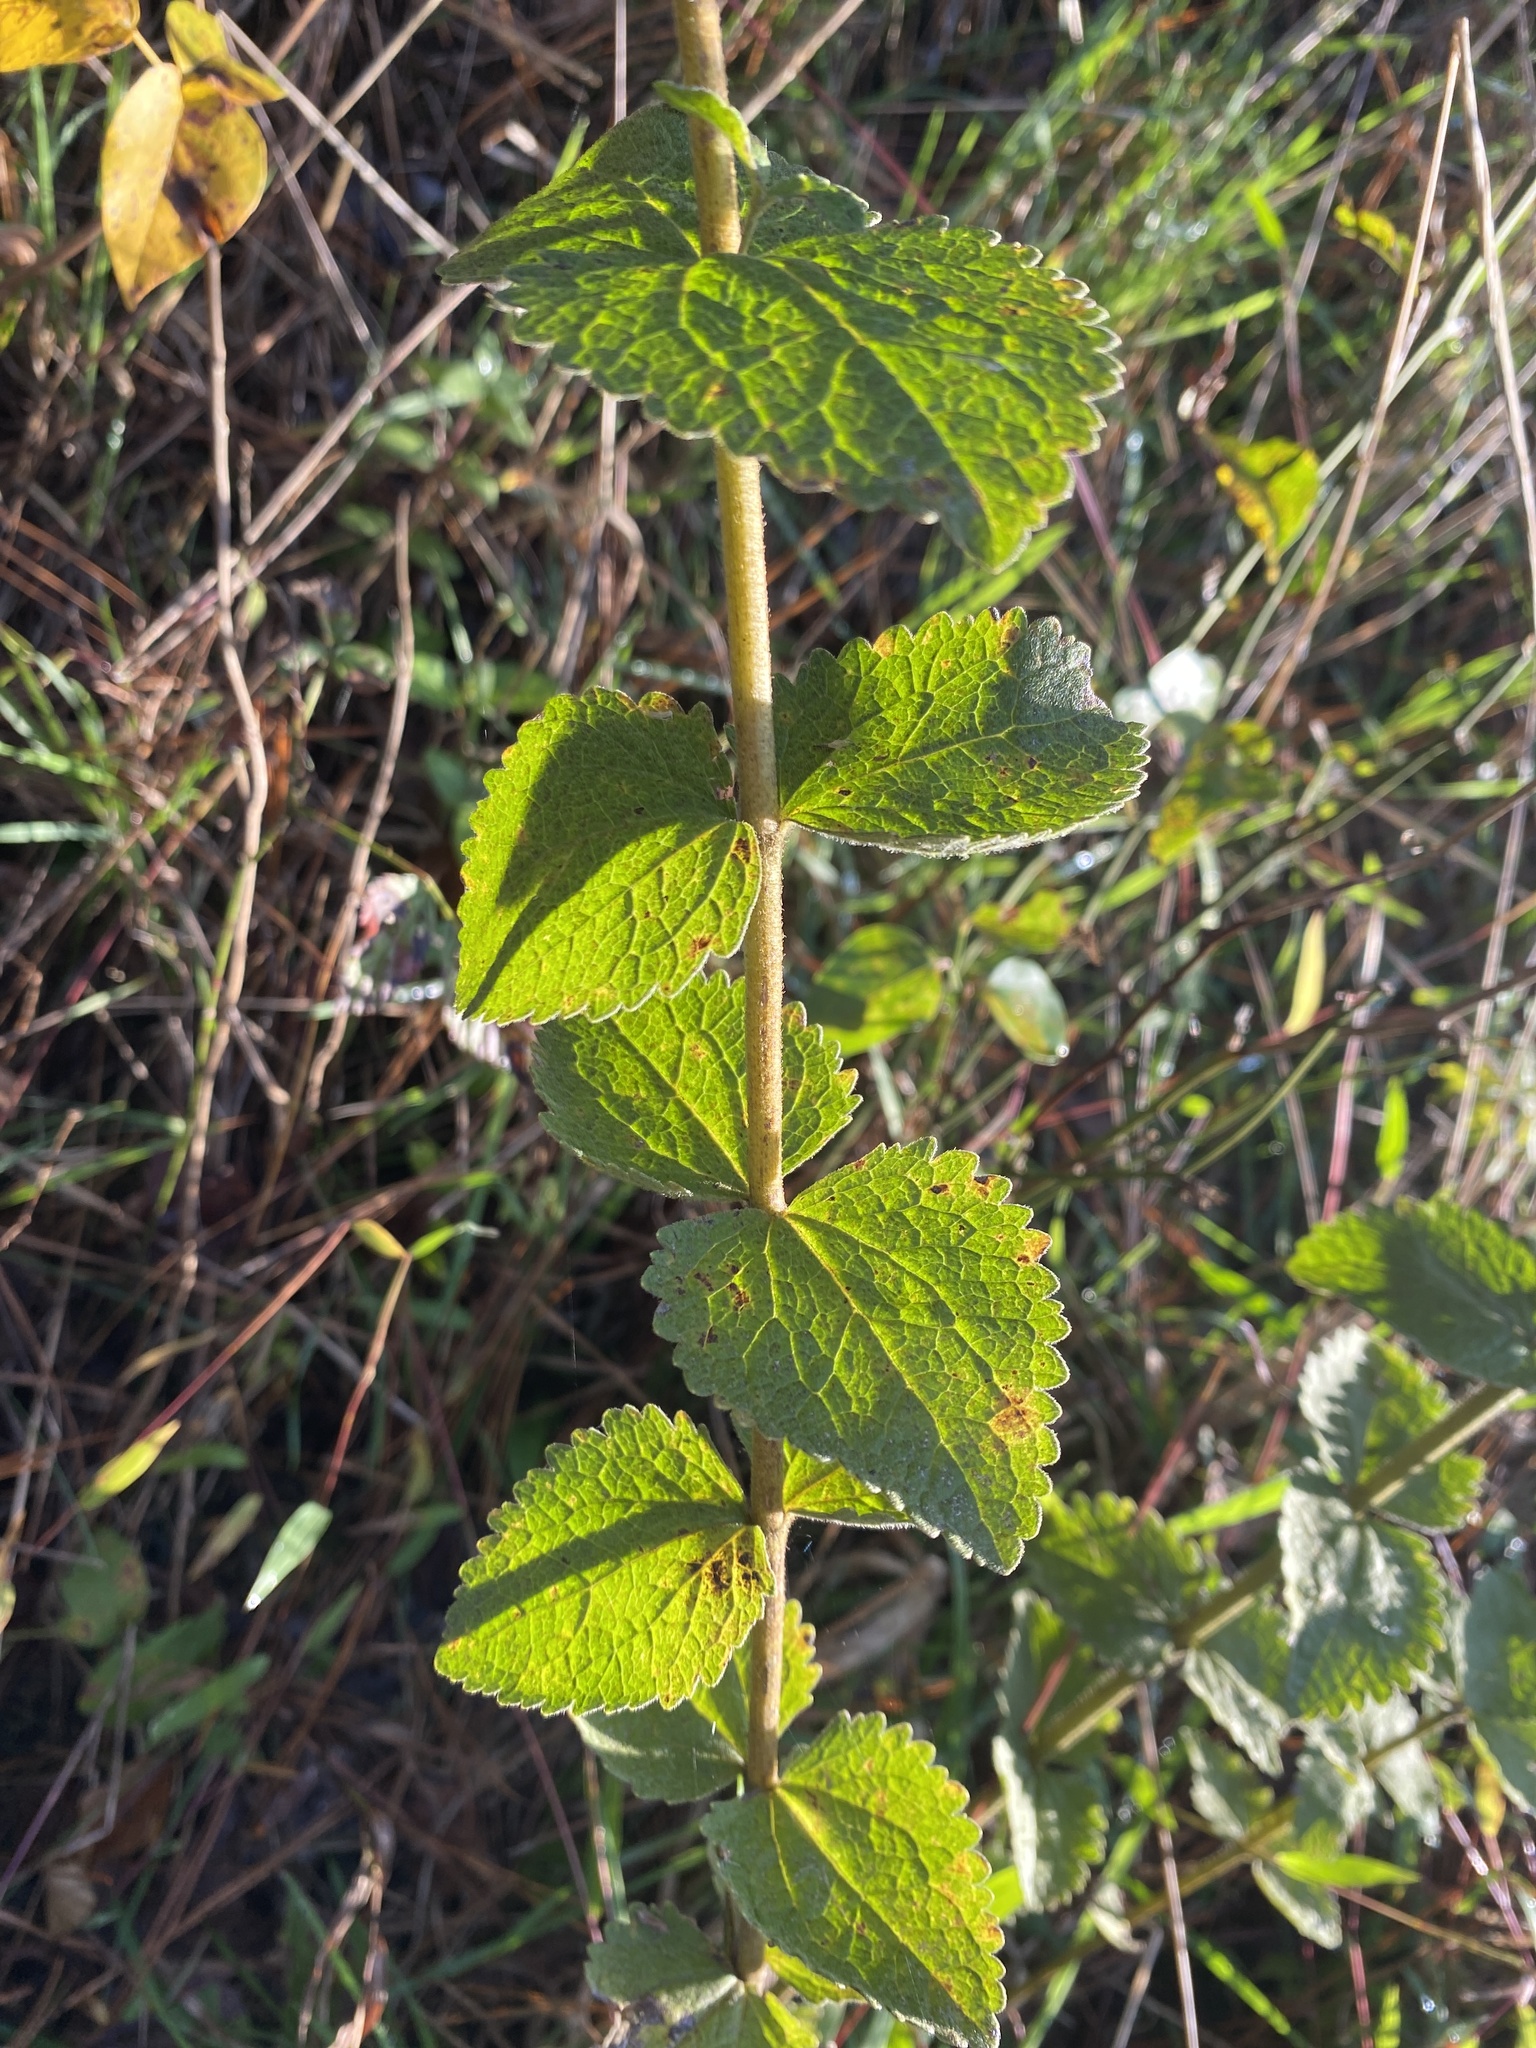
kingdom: Plantae
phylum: Tracheophyta
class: Magnoliopsida
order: Asterales
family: Asteraceae
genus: Eupatorium
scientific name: Eupatorium rotundifolium
